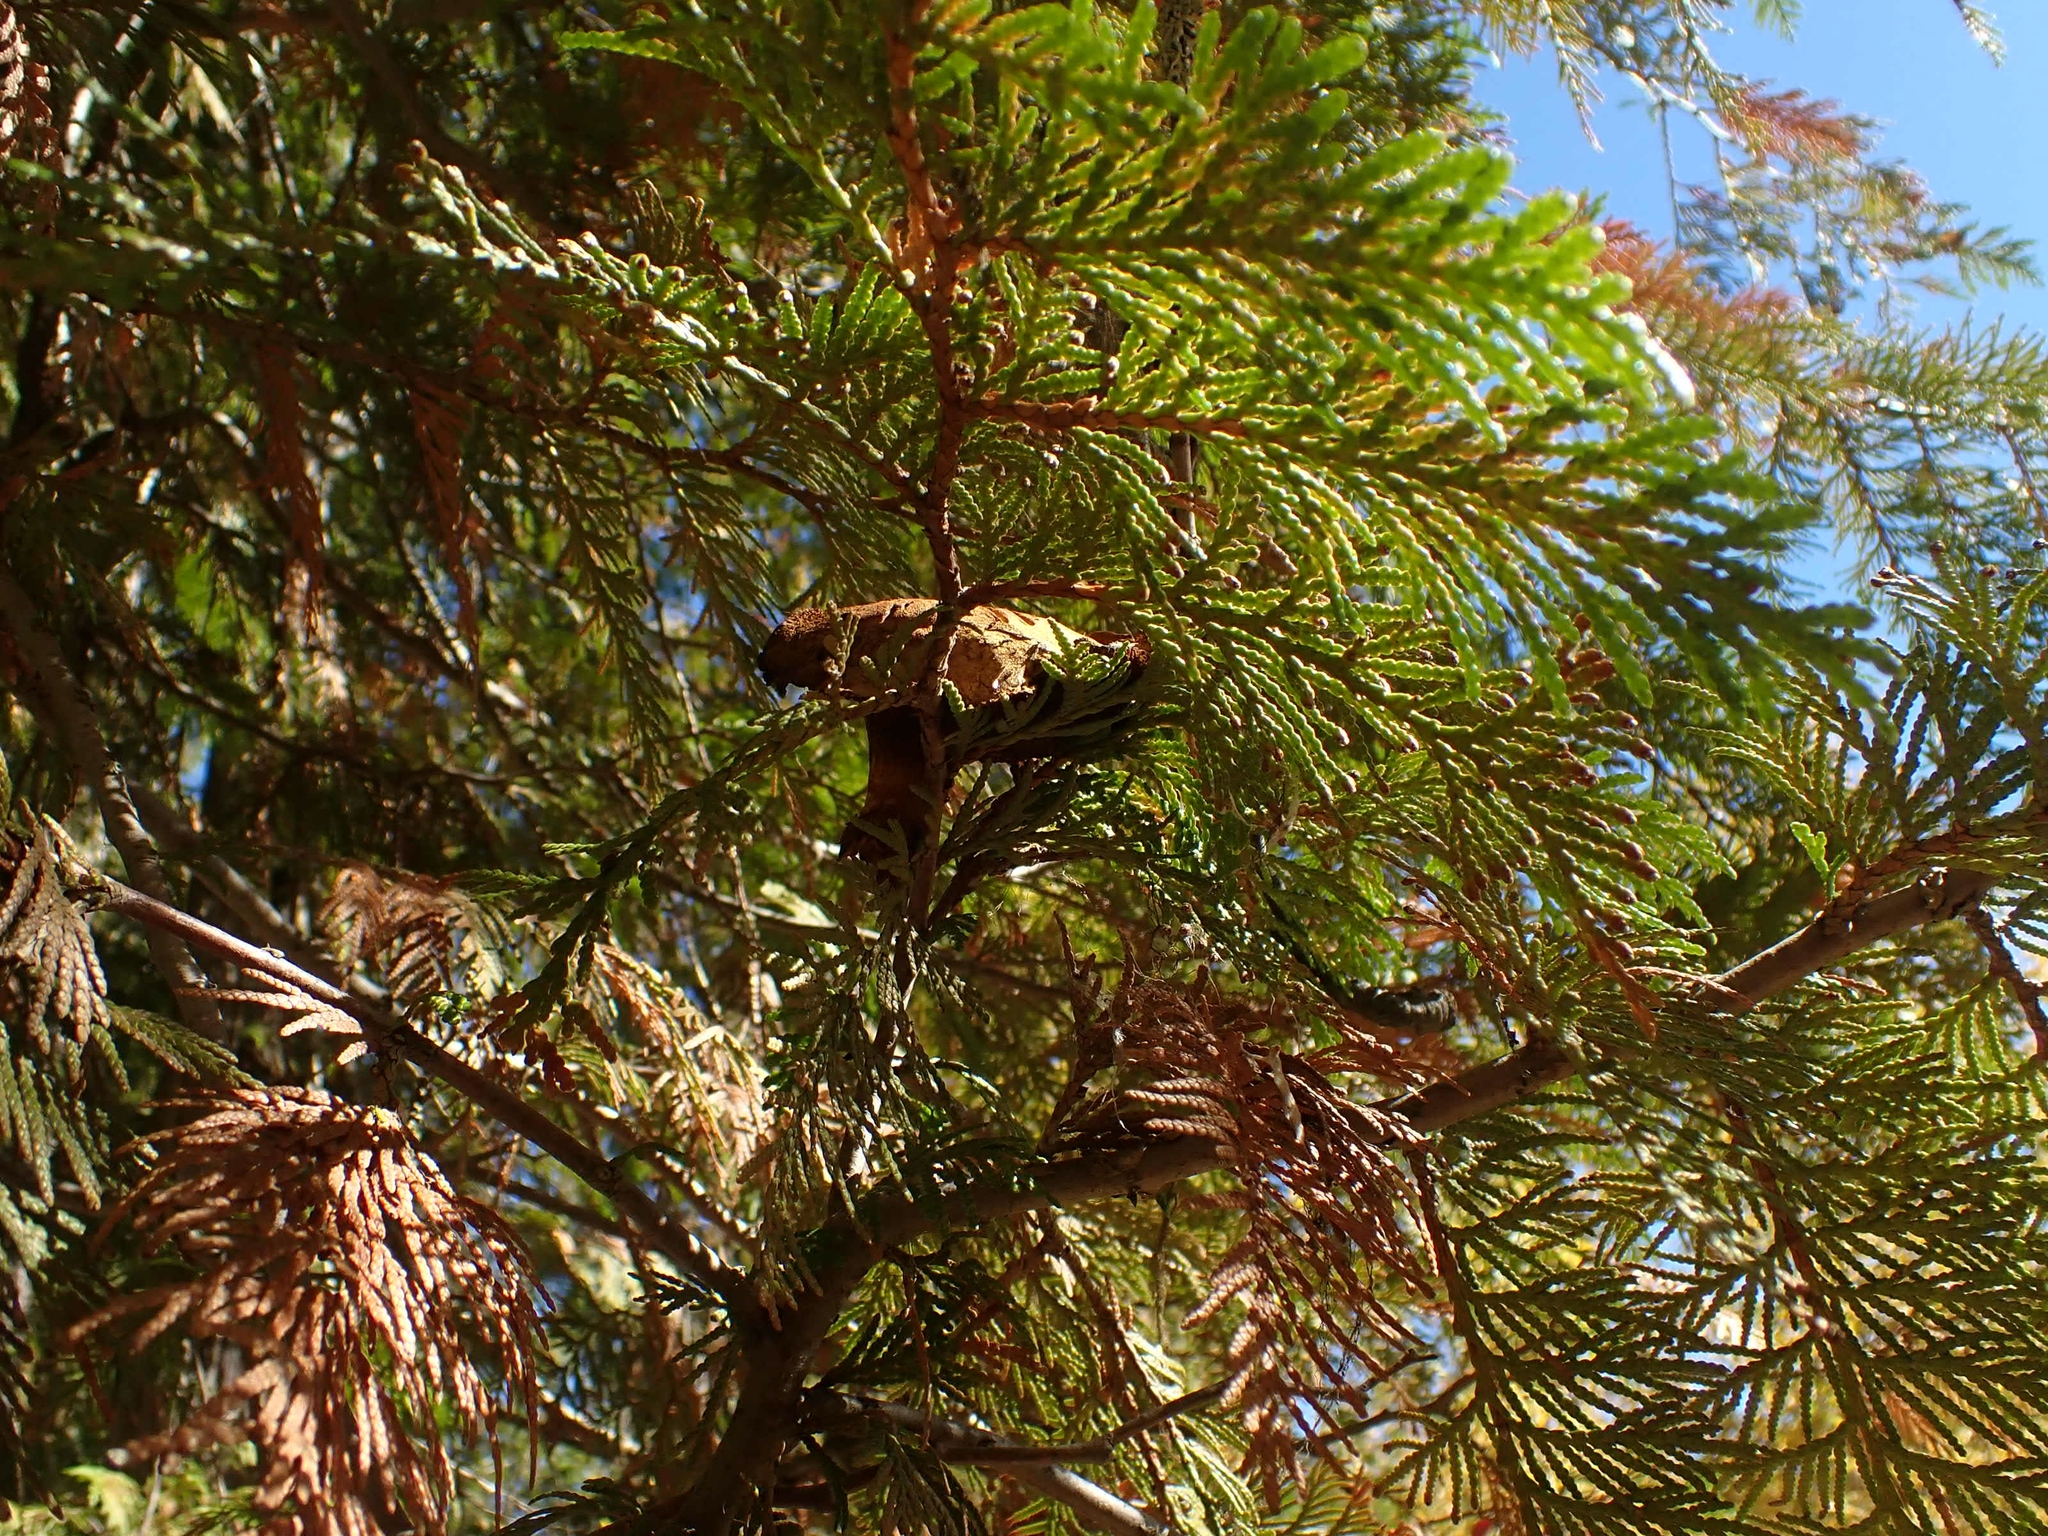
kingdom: Animalia
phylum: Chordata
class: Mammalia
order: Rodentia
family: Sciuridae
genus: Tamiasciurus
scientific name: Tamiasciurus hudsonicus
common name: Red squirrel
